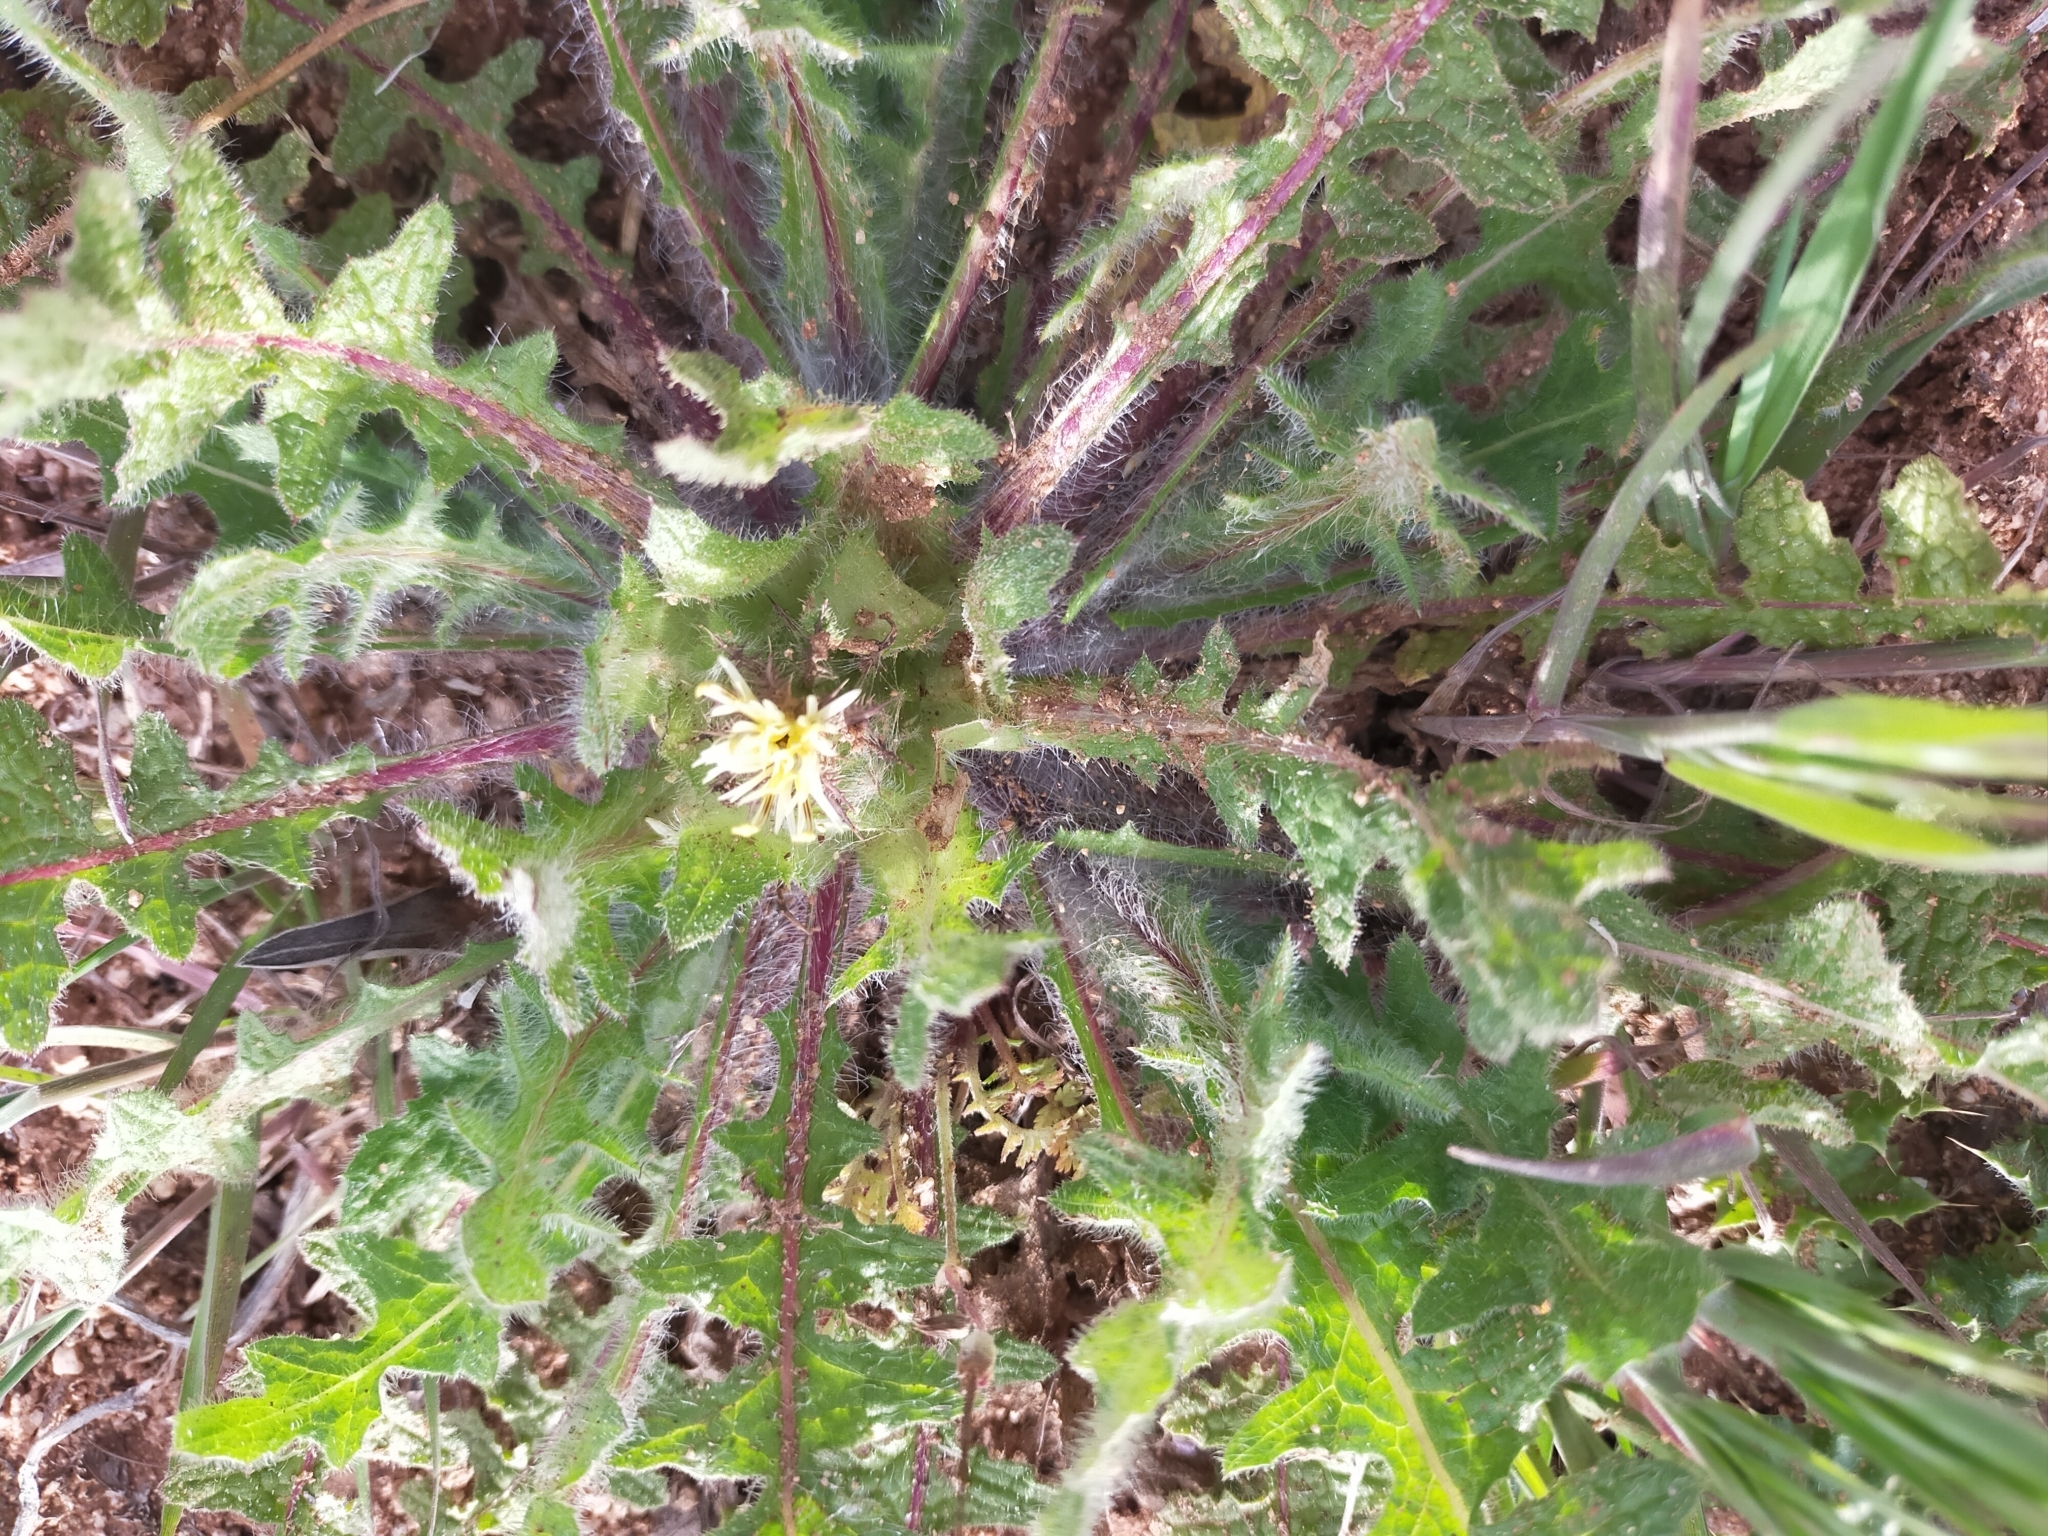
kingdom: Plantae
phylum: Tracheophyta
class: Magnoliopsida
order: Asterales
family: Asteraceae
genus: Centaurea
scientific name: Centaurea benedicta
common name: Blessed thistle
